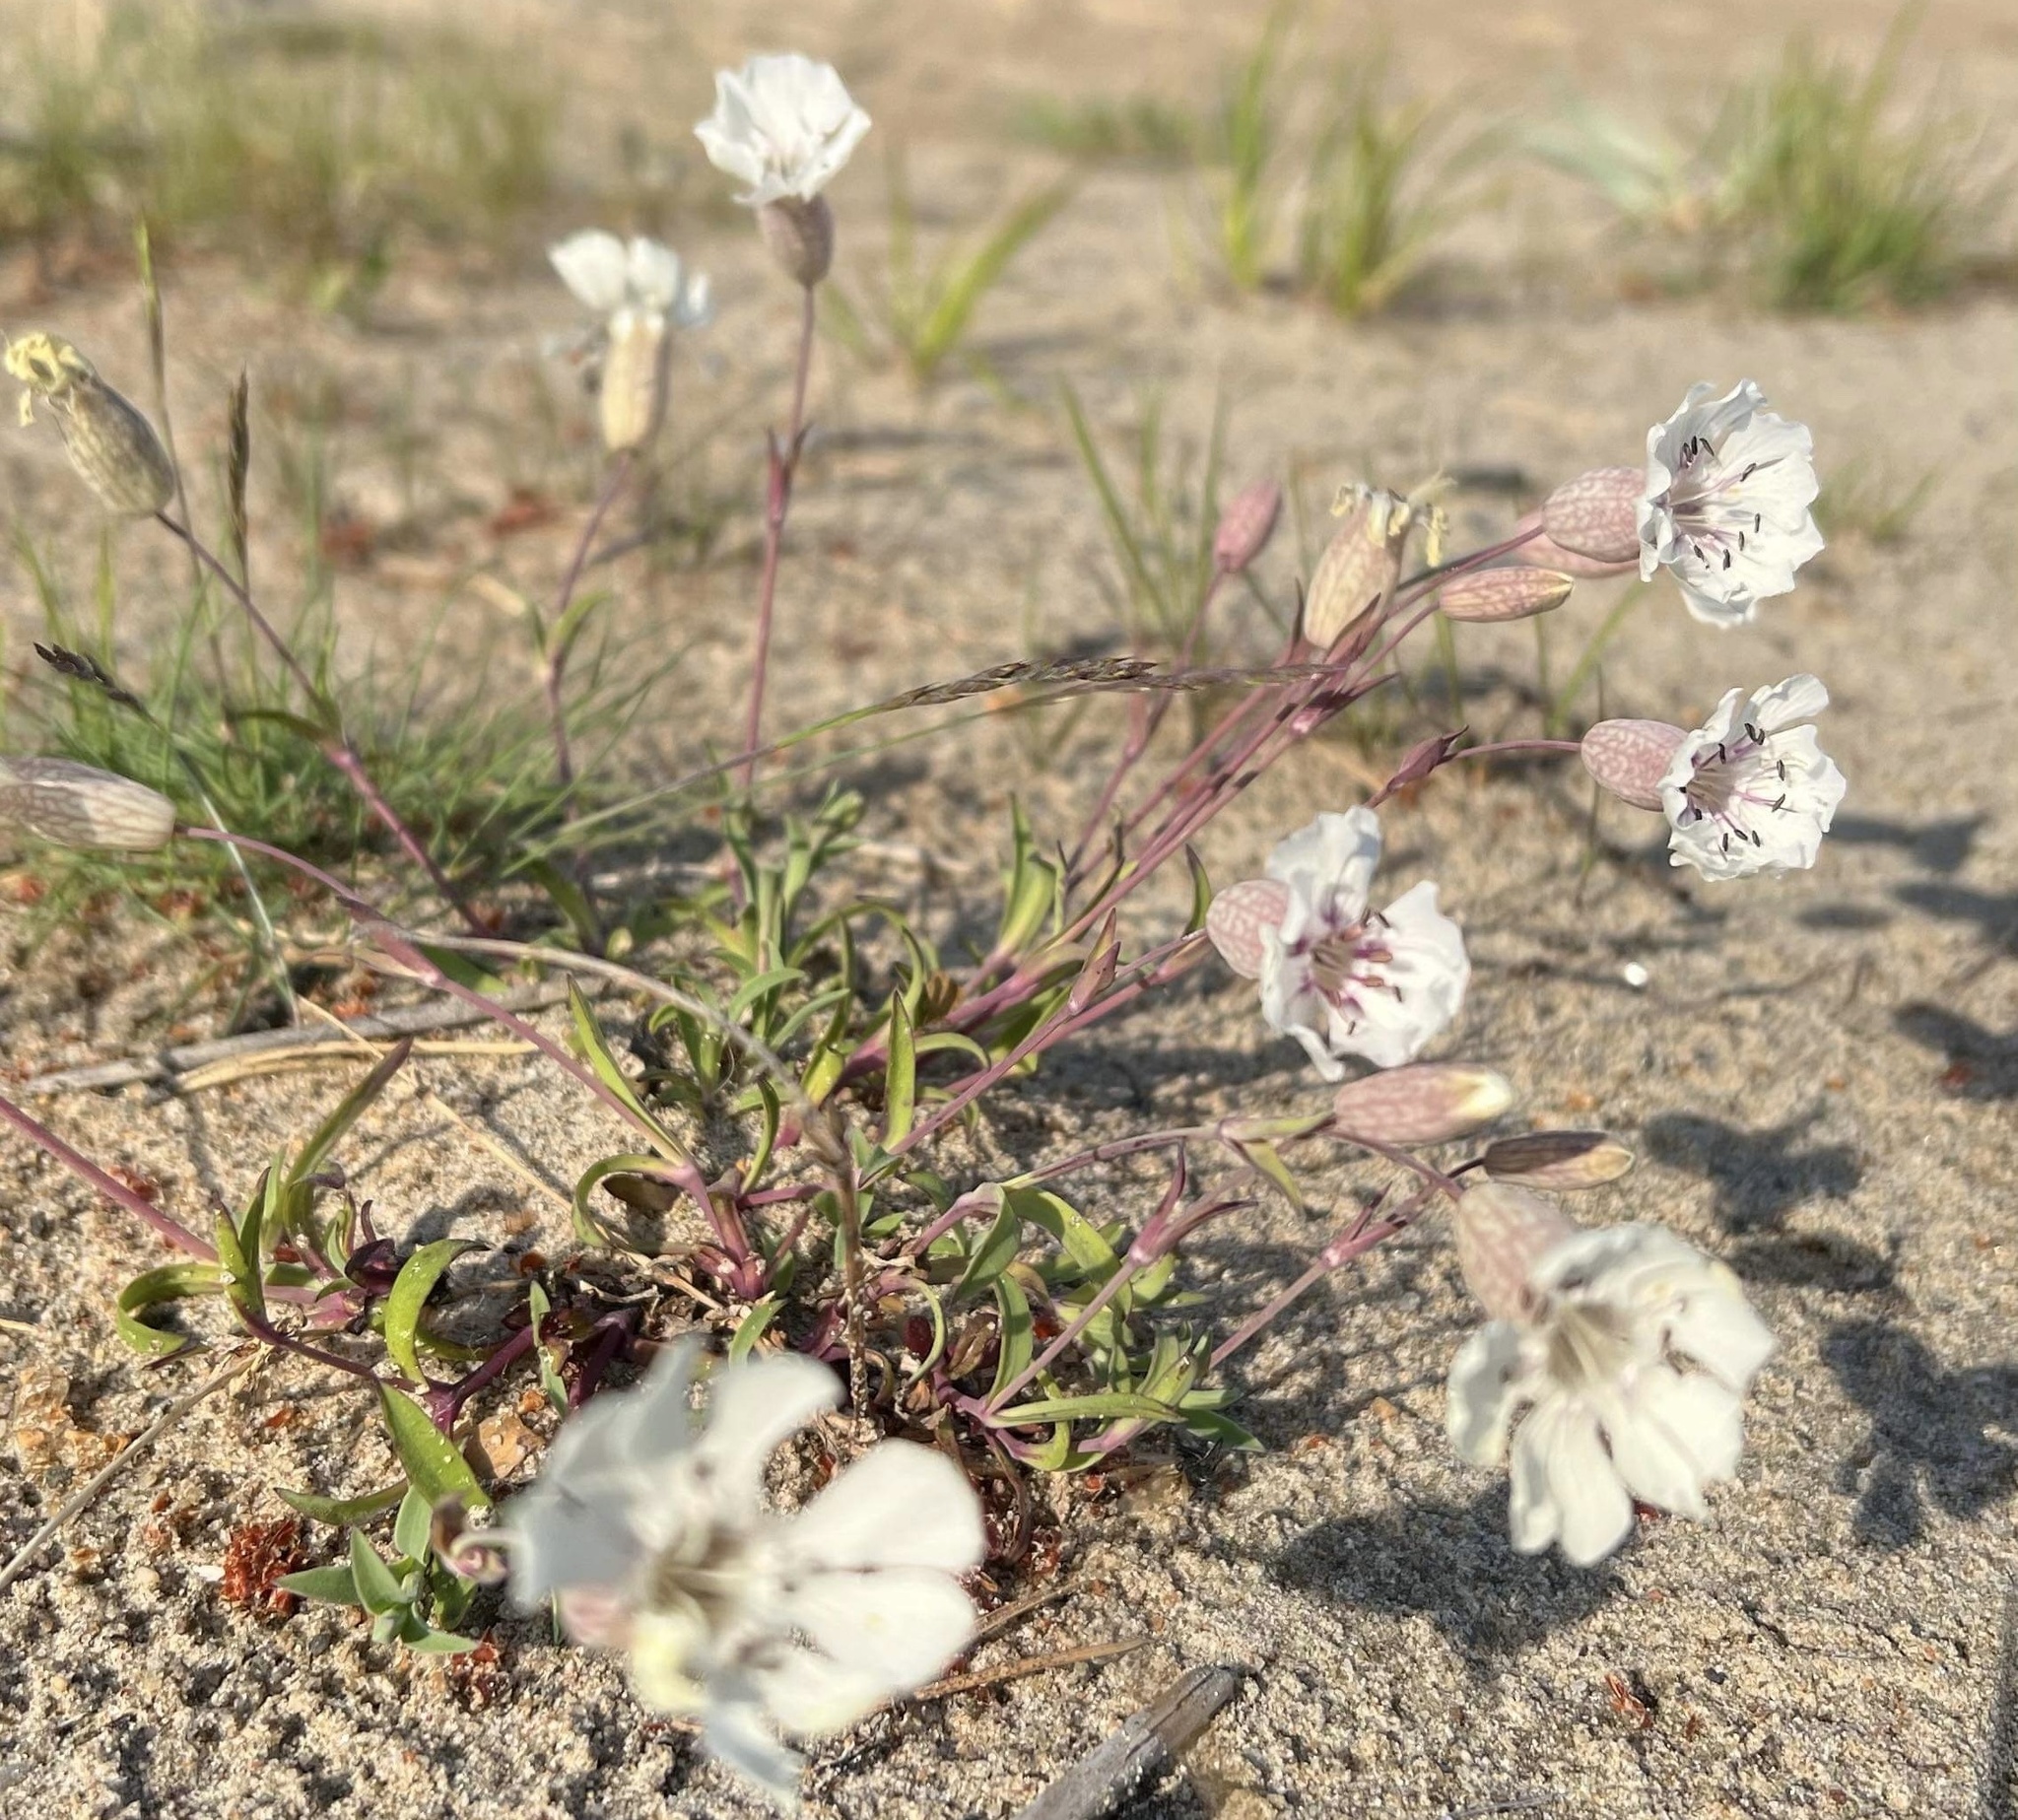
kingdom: Plantae
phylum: Tracheophyta
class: Magnoliopsida
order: Caryophyllales
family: Caryophyllaceae
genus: Silene
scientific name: Silene uniflora
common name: Sea campion
